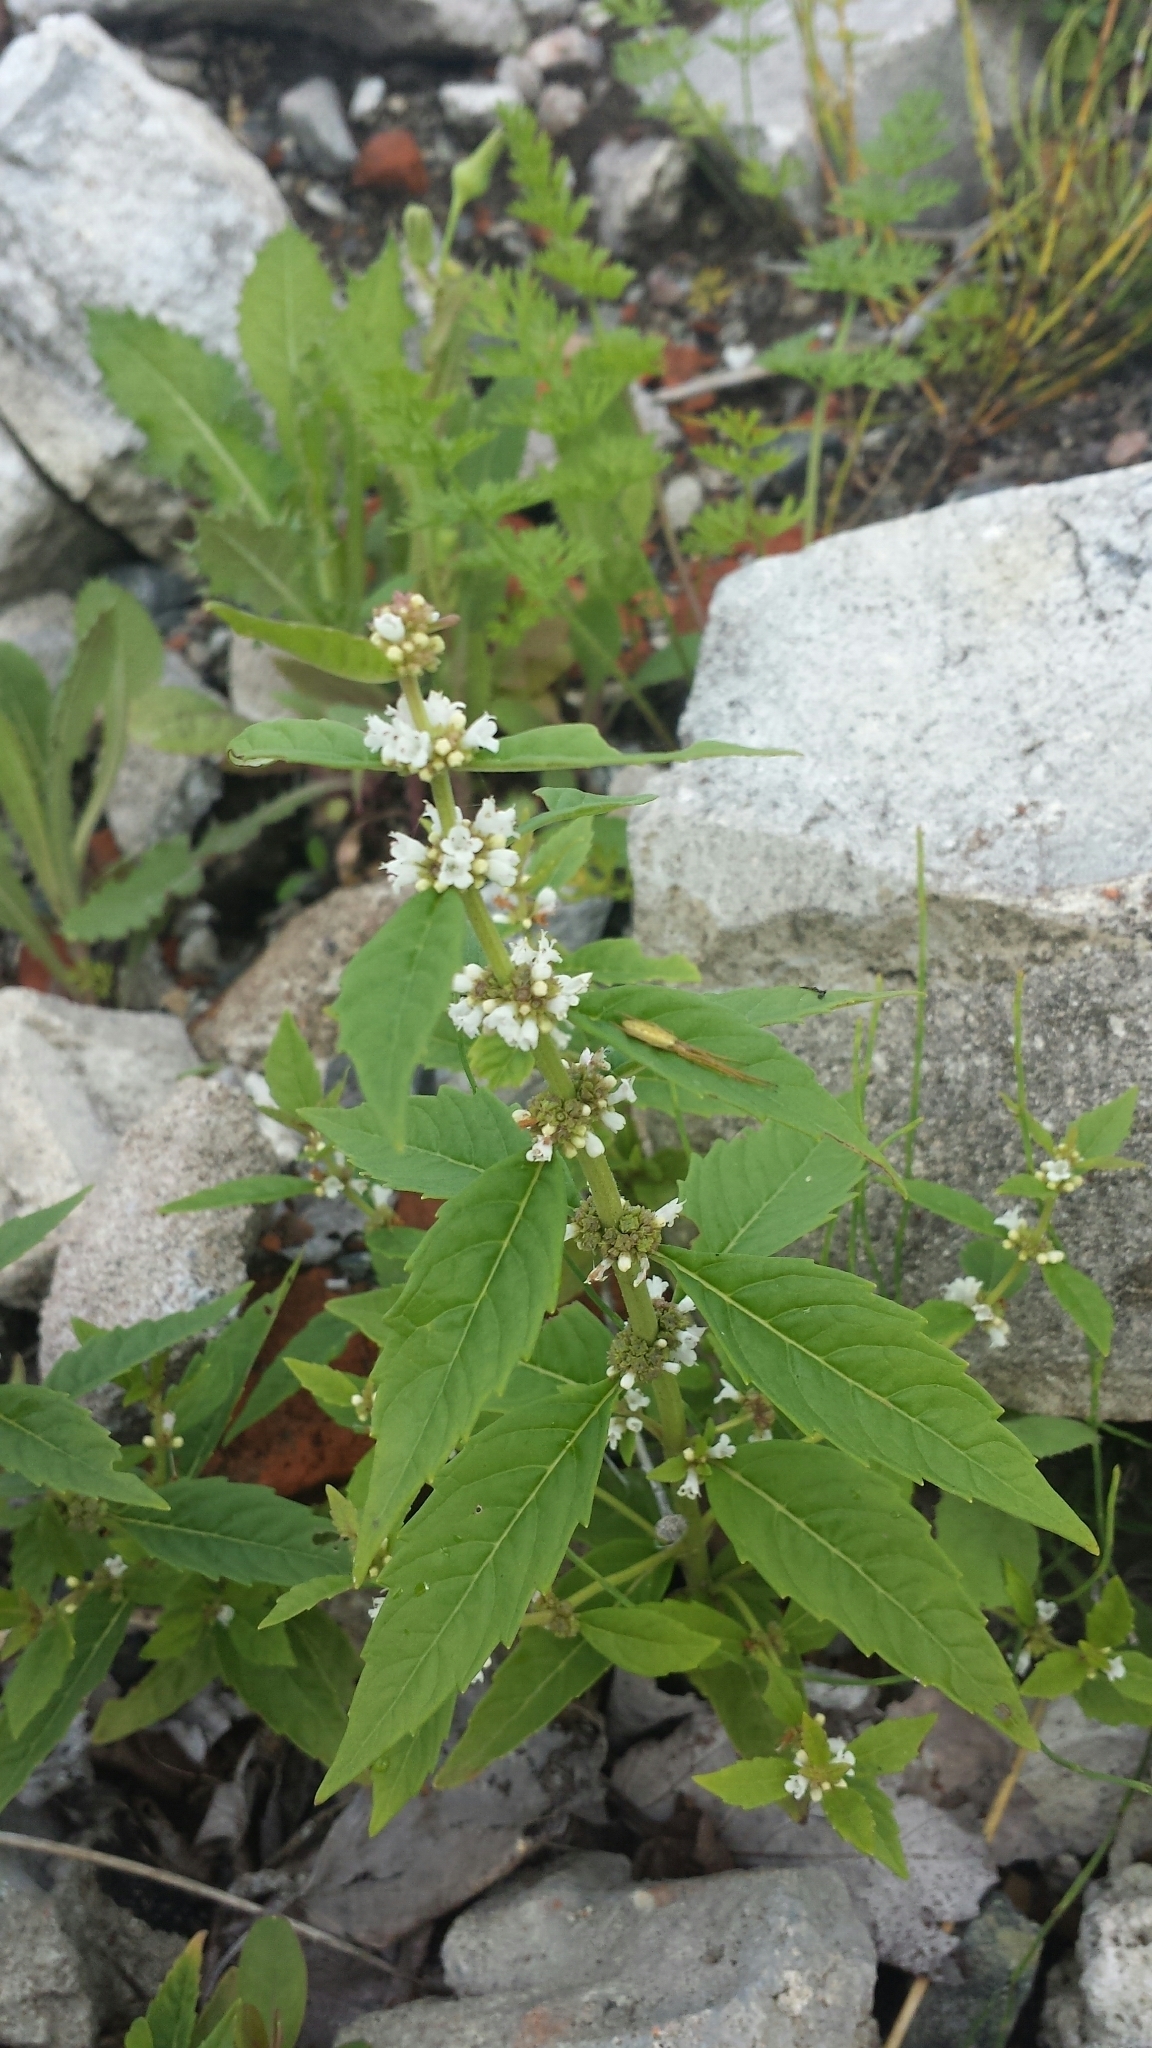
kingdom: Plantae
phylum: Tracheophyta
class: Magnoliopsida
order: Lamiales
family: Lamiaceae
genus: Lycopus
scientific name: Lycopus uniflorus
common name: Northern bugleweed
